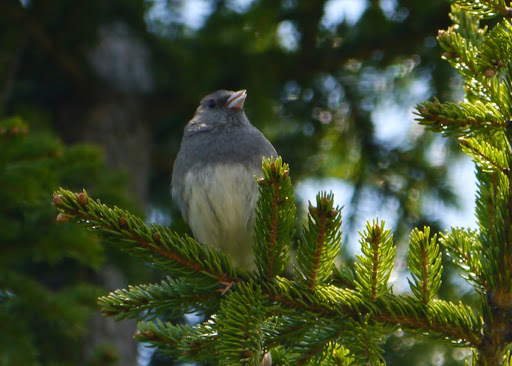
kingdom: Animalia
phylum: Chordata
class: Aves
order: Passeriformes
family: Passerellidae
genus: Junco
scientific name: Junco hyemalis
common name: Dark-eyed junco
